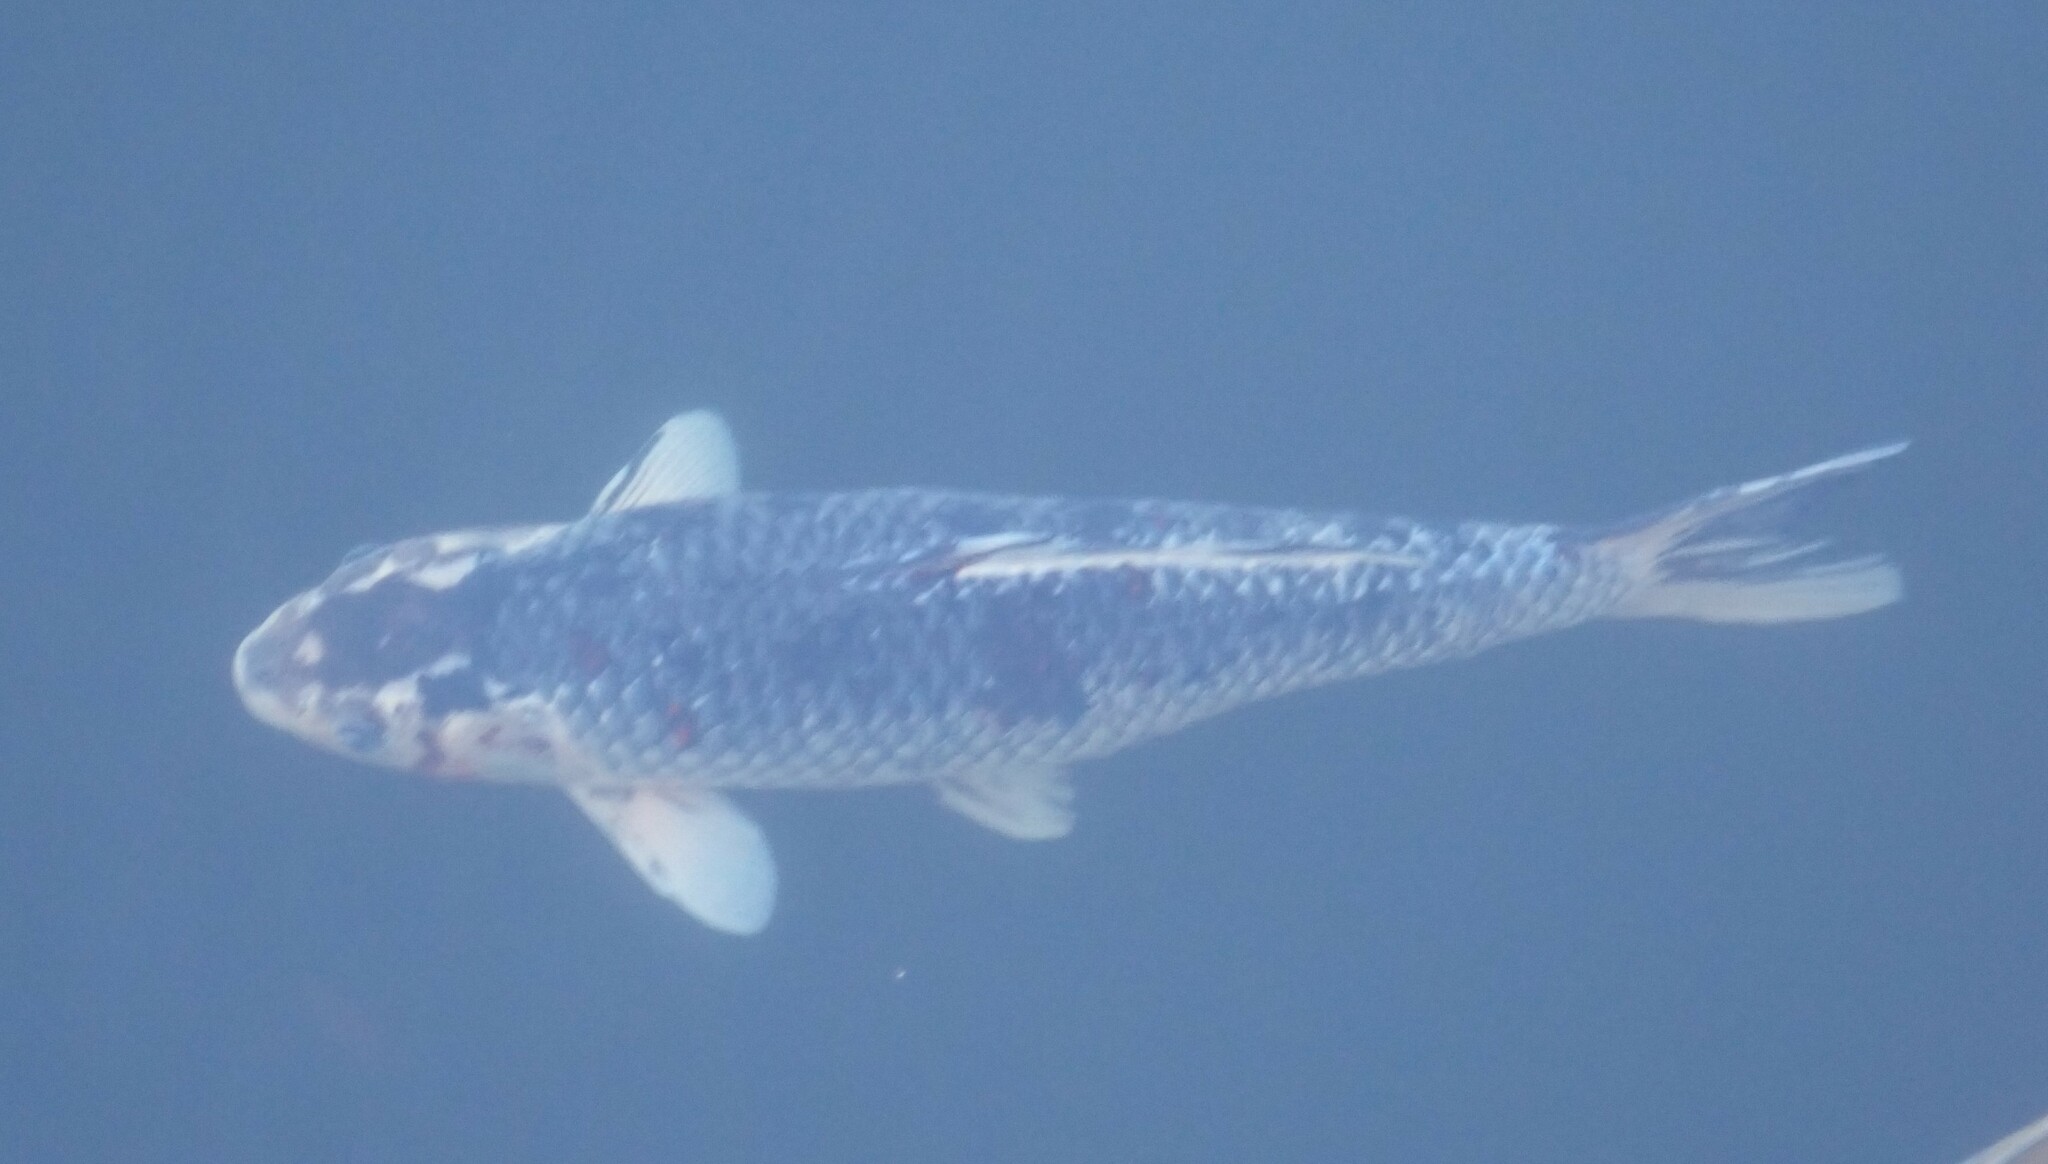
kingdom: Animalia
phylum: Chordata
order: Cypriniformes
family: Cyprinidae
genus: Cyprinus
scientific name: Cyprinus rubrofuscus
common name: Koi
